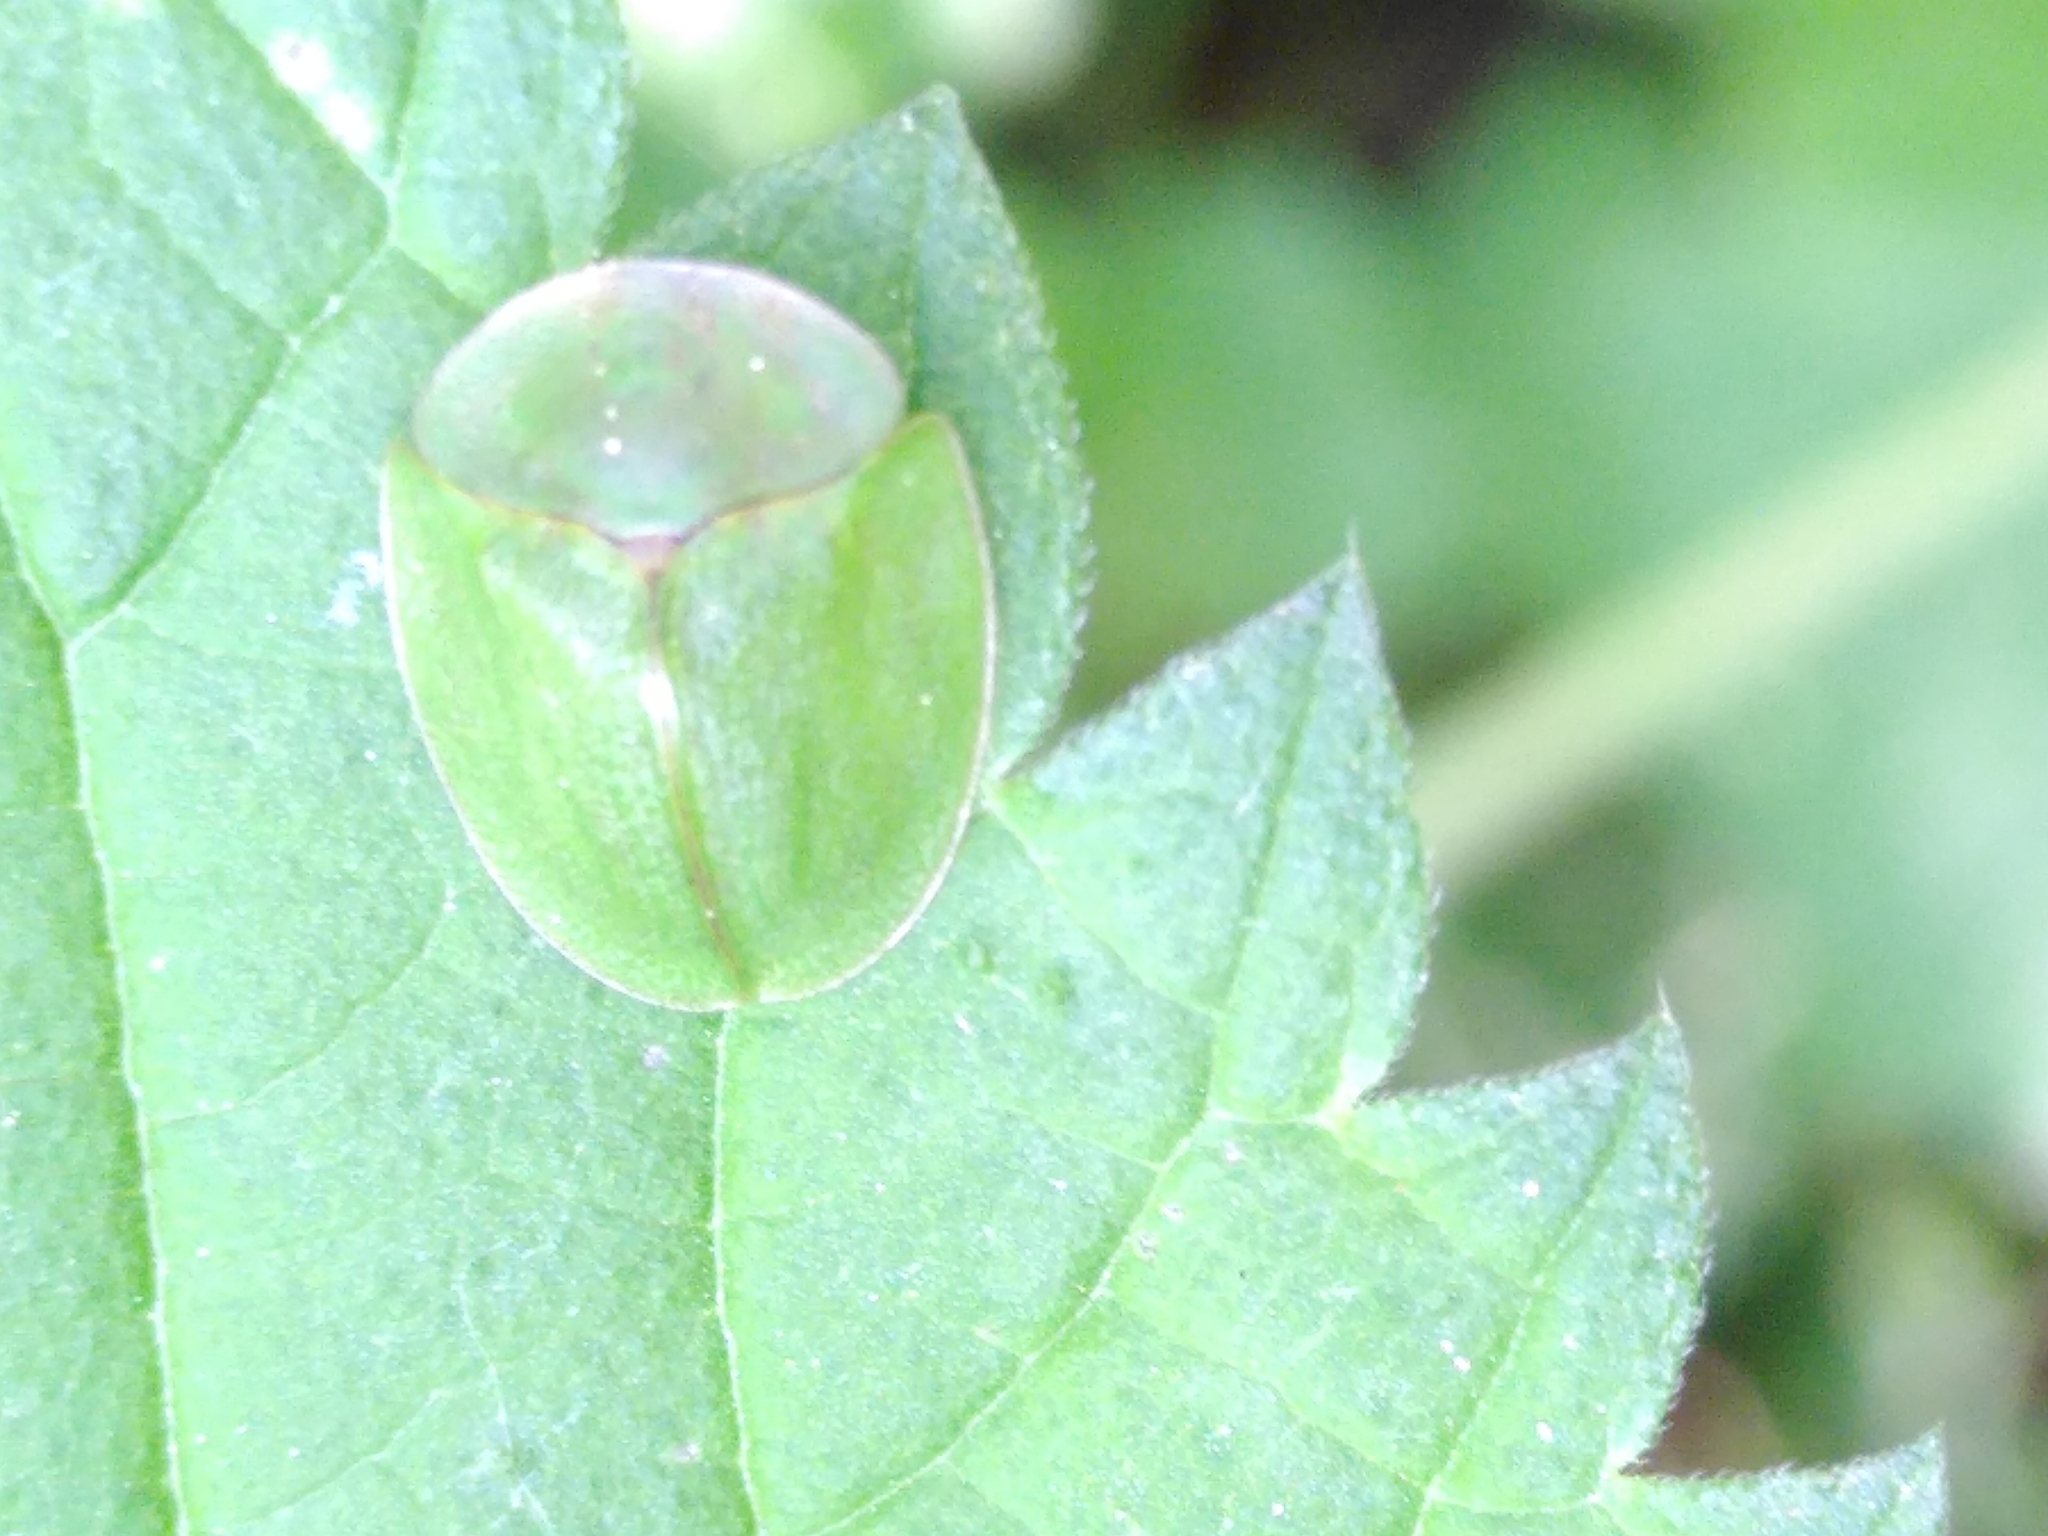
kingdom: Animalia
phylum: Arthropoda
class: Insecta
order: Coleoptera
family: Chrysomelidae
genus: Cassida
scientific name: Cassida viridis
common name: Green tortoise beetle
